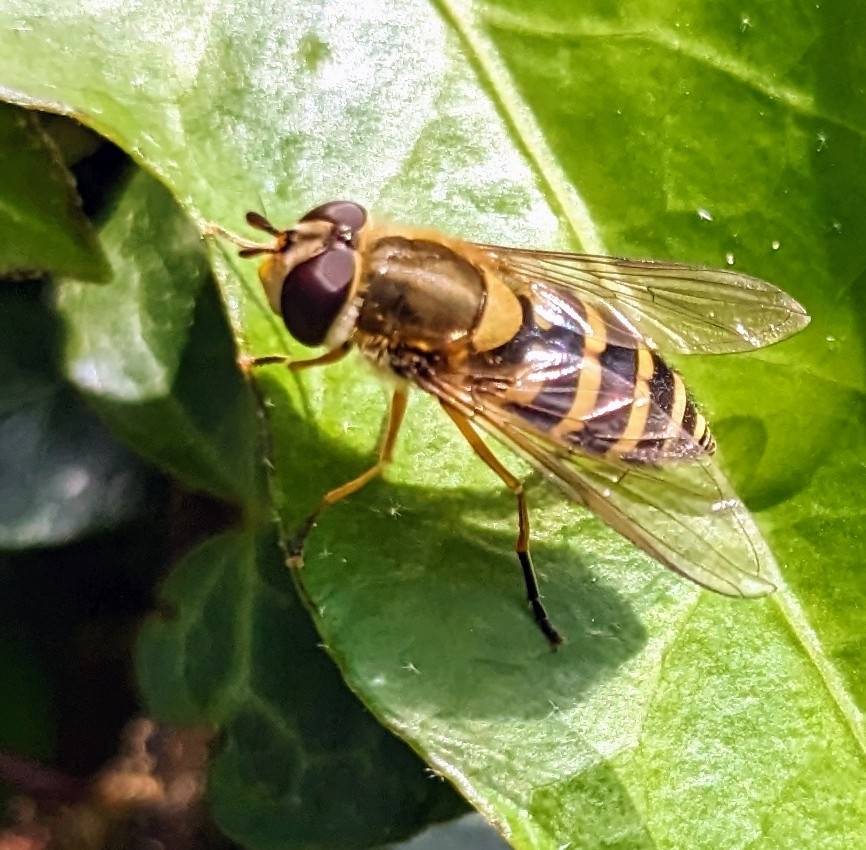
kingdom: Animalia
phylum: Arthropoda
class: Insecta
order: Diptera
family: Syrphidae
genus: Syrphus
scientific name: Syrphus ribesii
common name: Common flower fly
